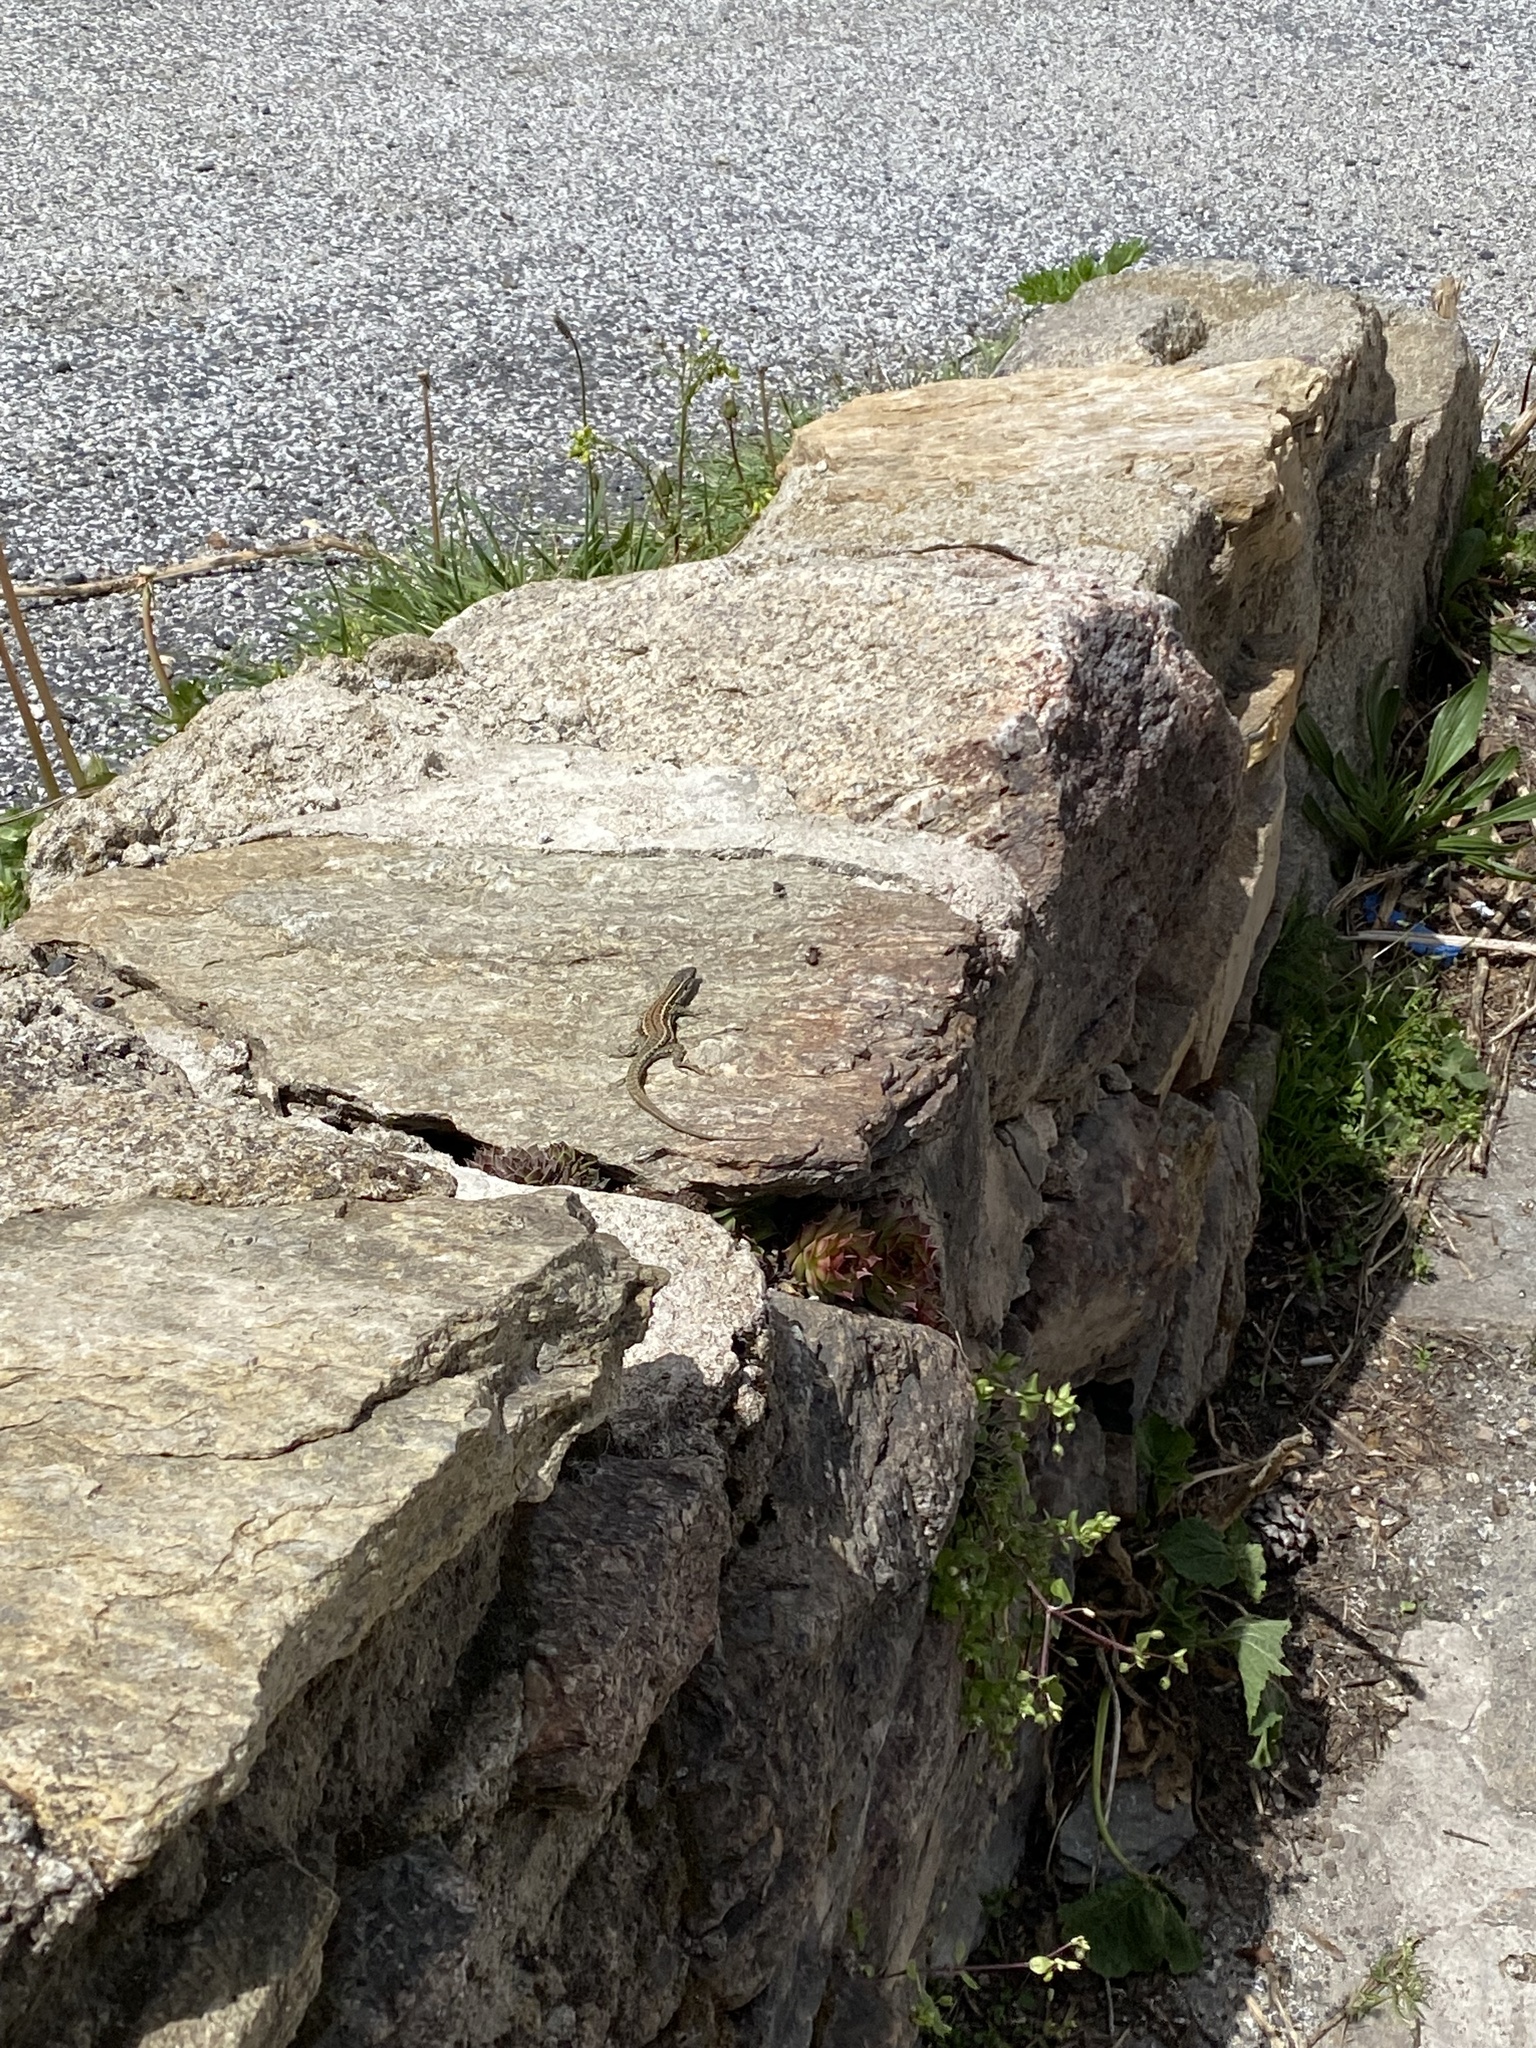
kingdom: Animalia
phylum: Chordata
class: Squamata
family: Lacertidae
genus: Podarcis
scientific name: Podarcis muralis
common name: Common wall lizard
